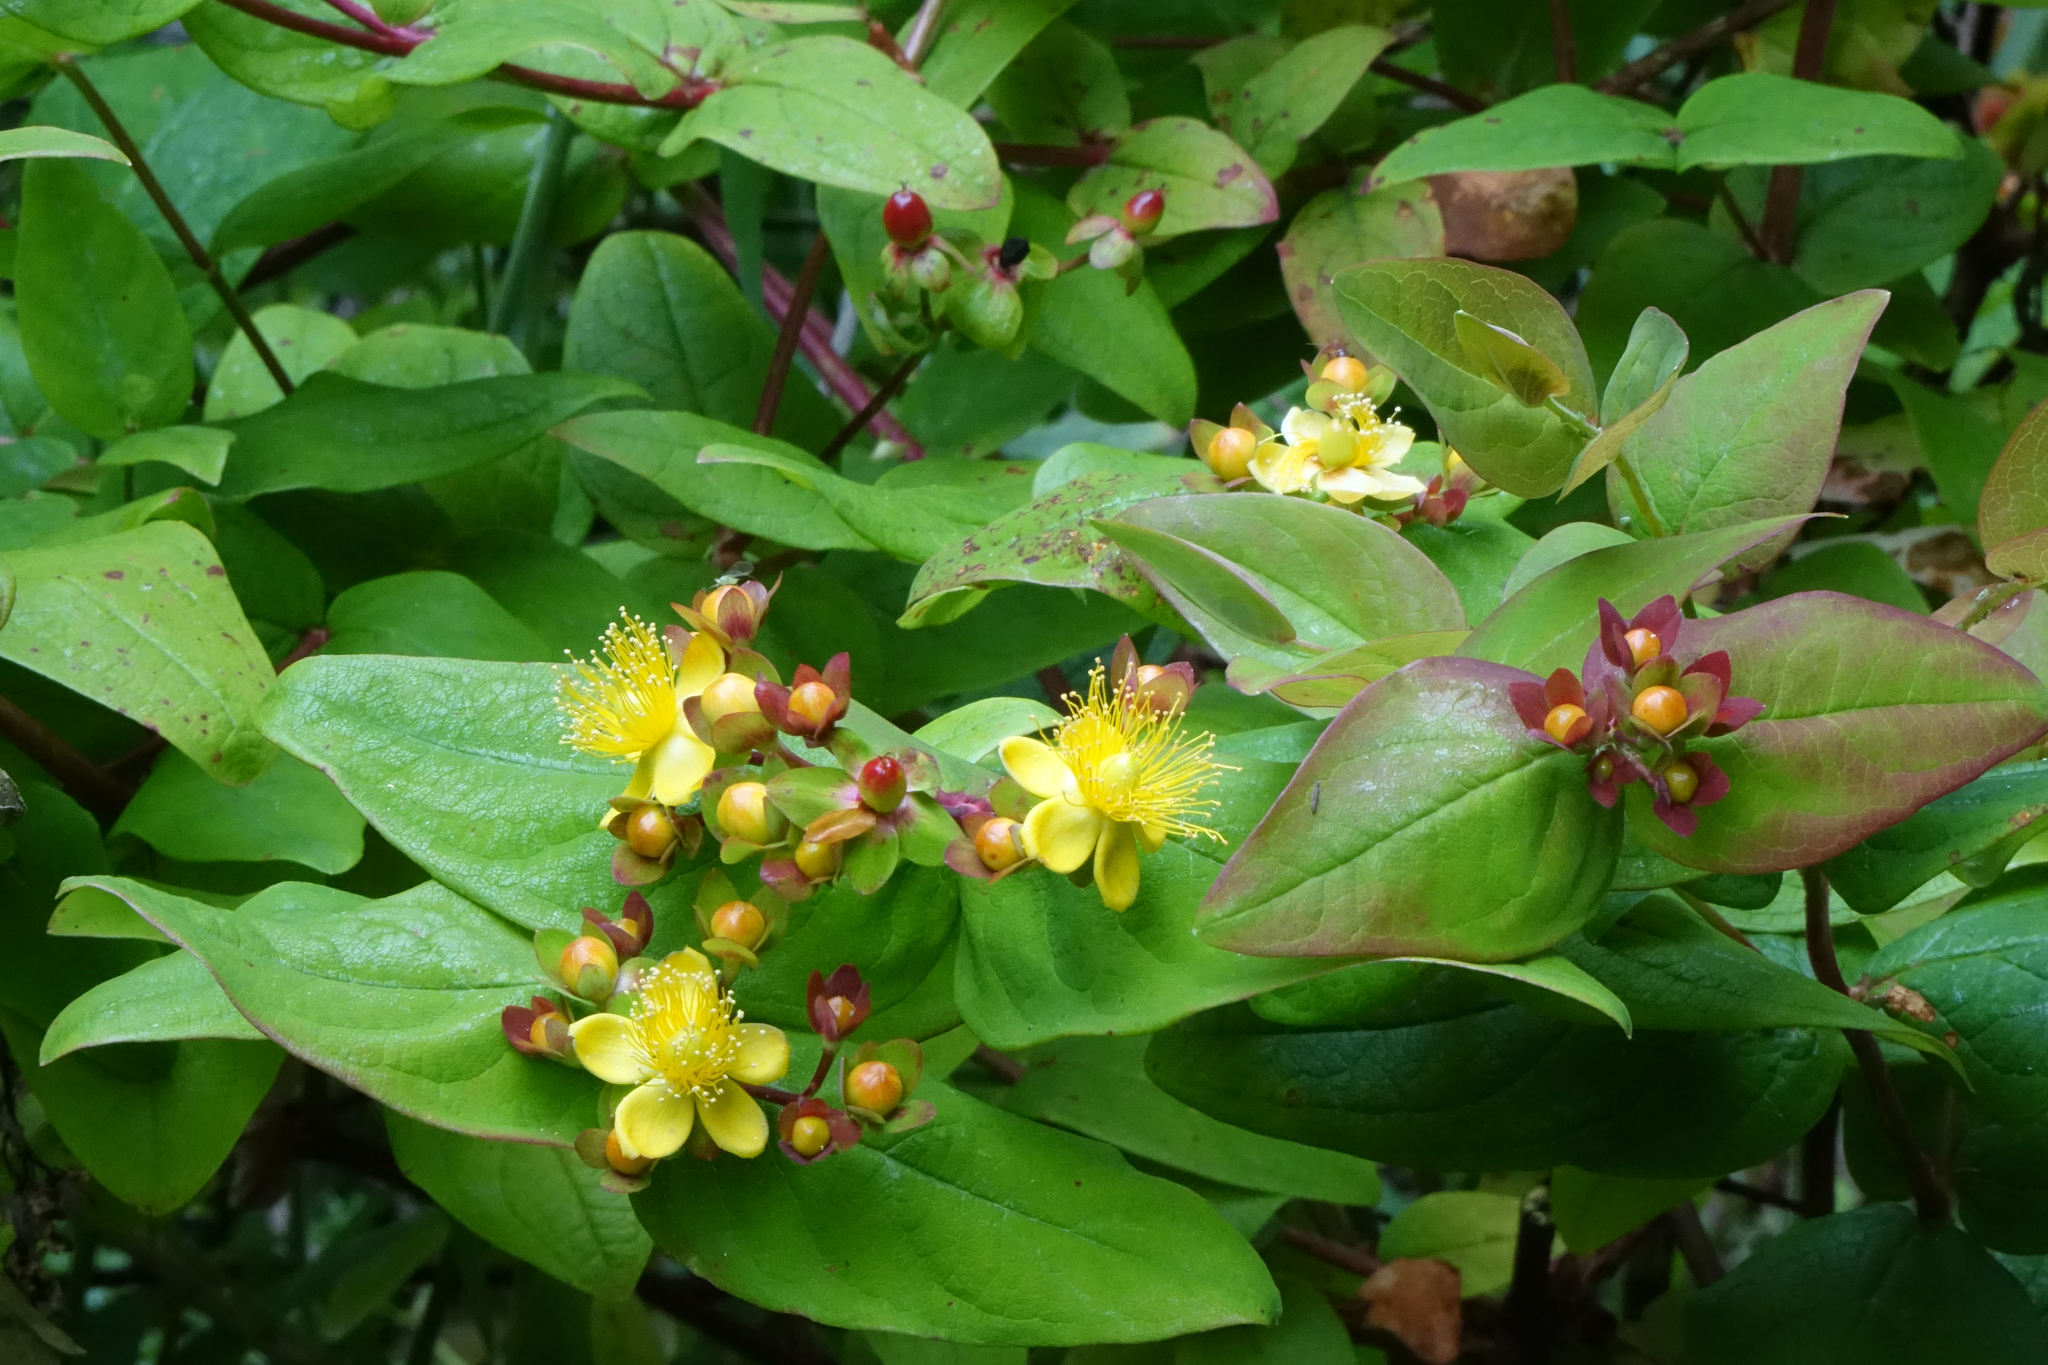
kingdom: Plantae
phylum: Tracheophyta
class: Magnoliopsida
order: Malpighiales
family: Hypericaceae
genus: Hypericum
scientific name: Hypericum androsaemum
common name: Sweet-amber
